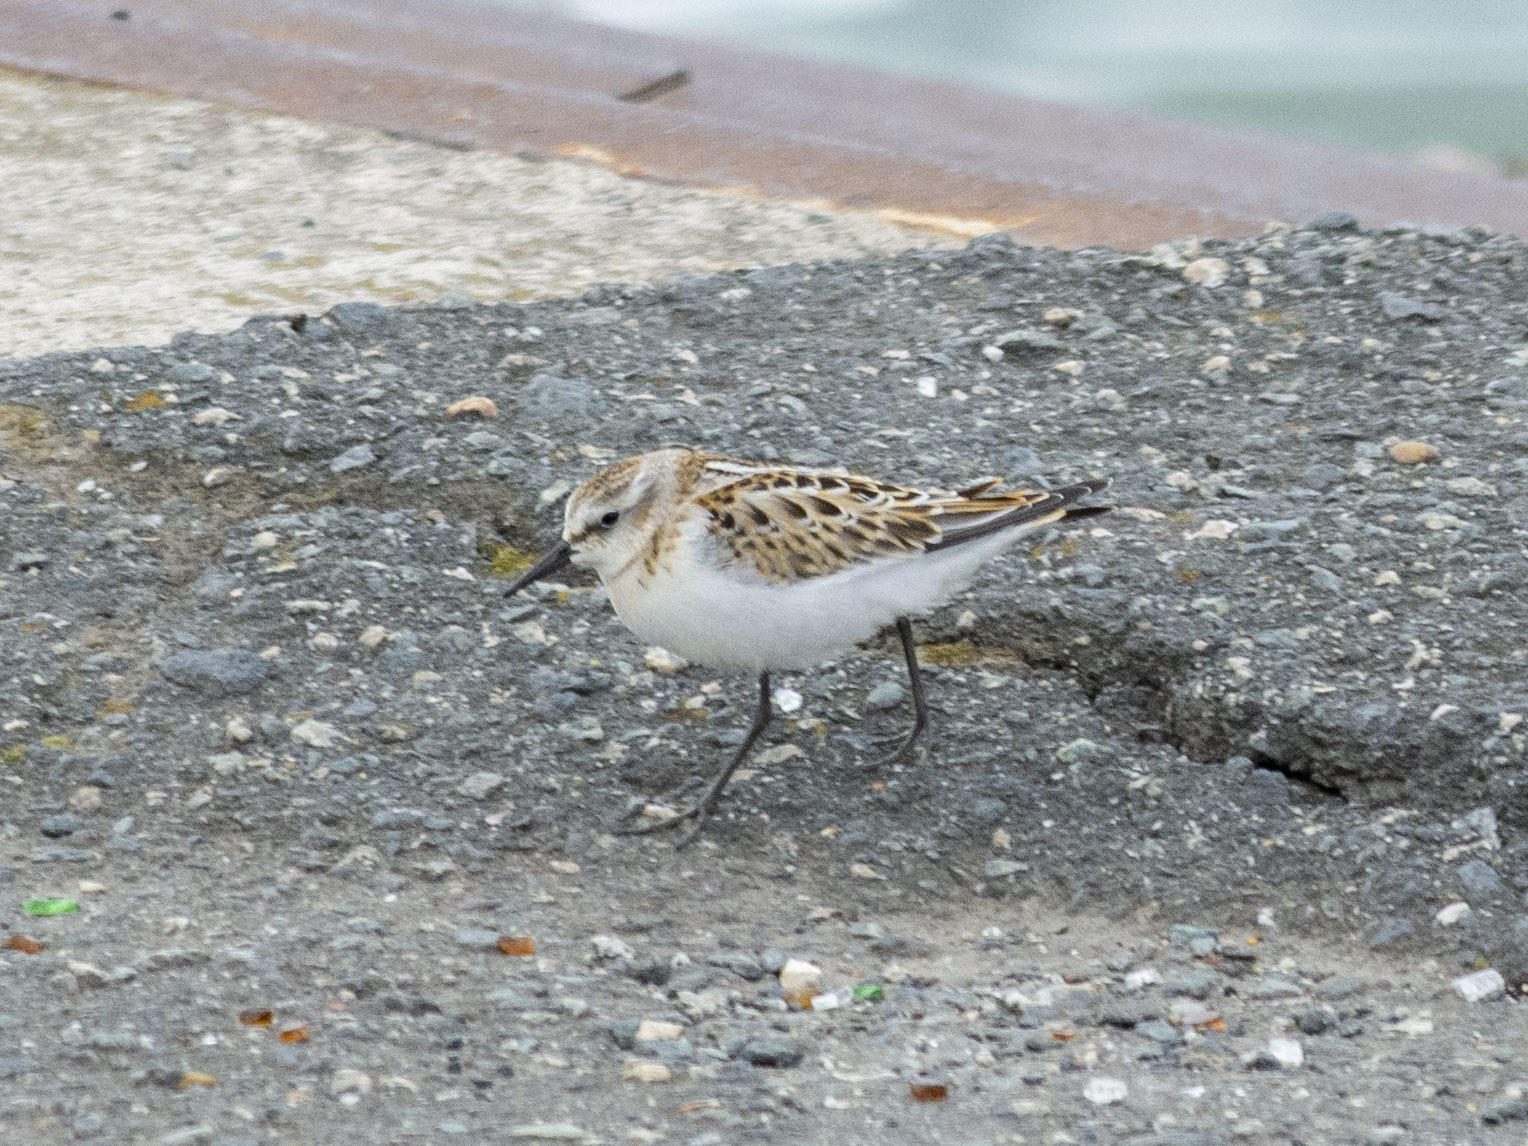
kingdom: Animalia
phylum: Chordata
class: Aves
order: Charadriiformes
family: Scolopacidae
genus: Calidris
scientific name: Calidris minuta
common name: Little stint
